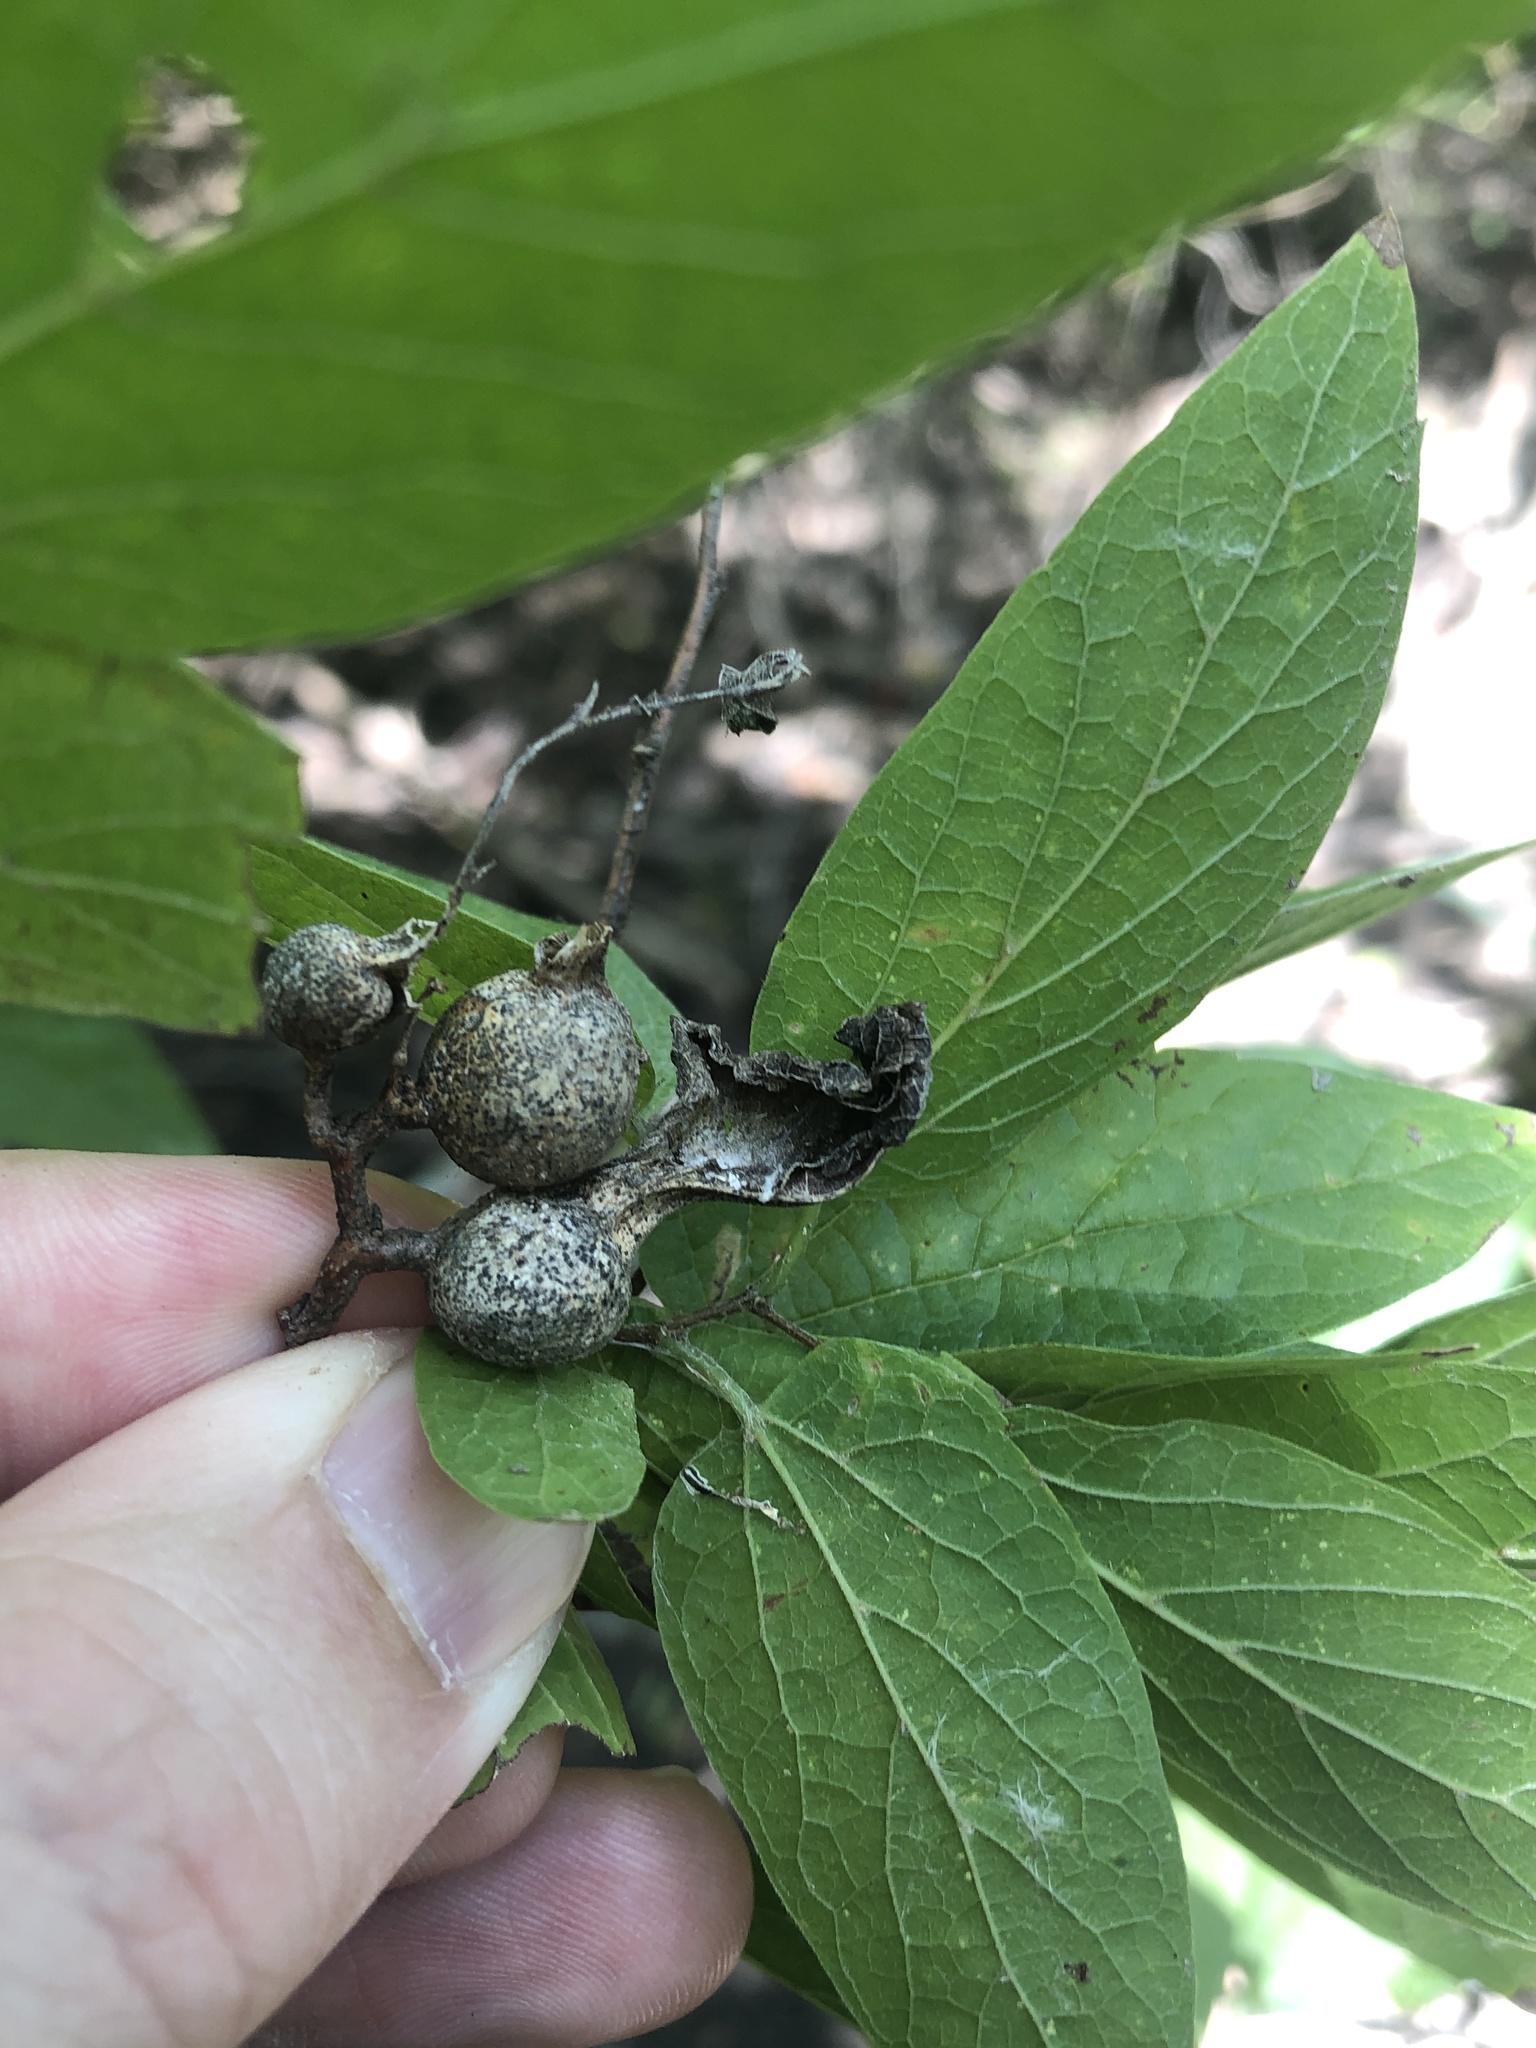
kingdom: Animalia
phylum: Arthropoda
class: Insecta
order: Hemiptera
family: Aphalaridae
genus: Pachypsylla
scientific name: Pachypsylla venusta
